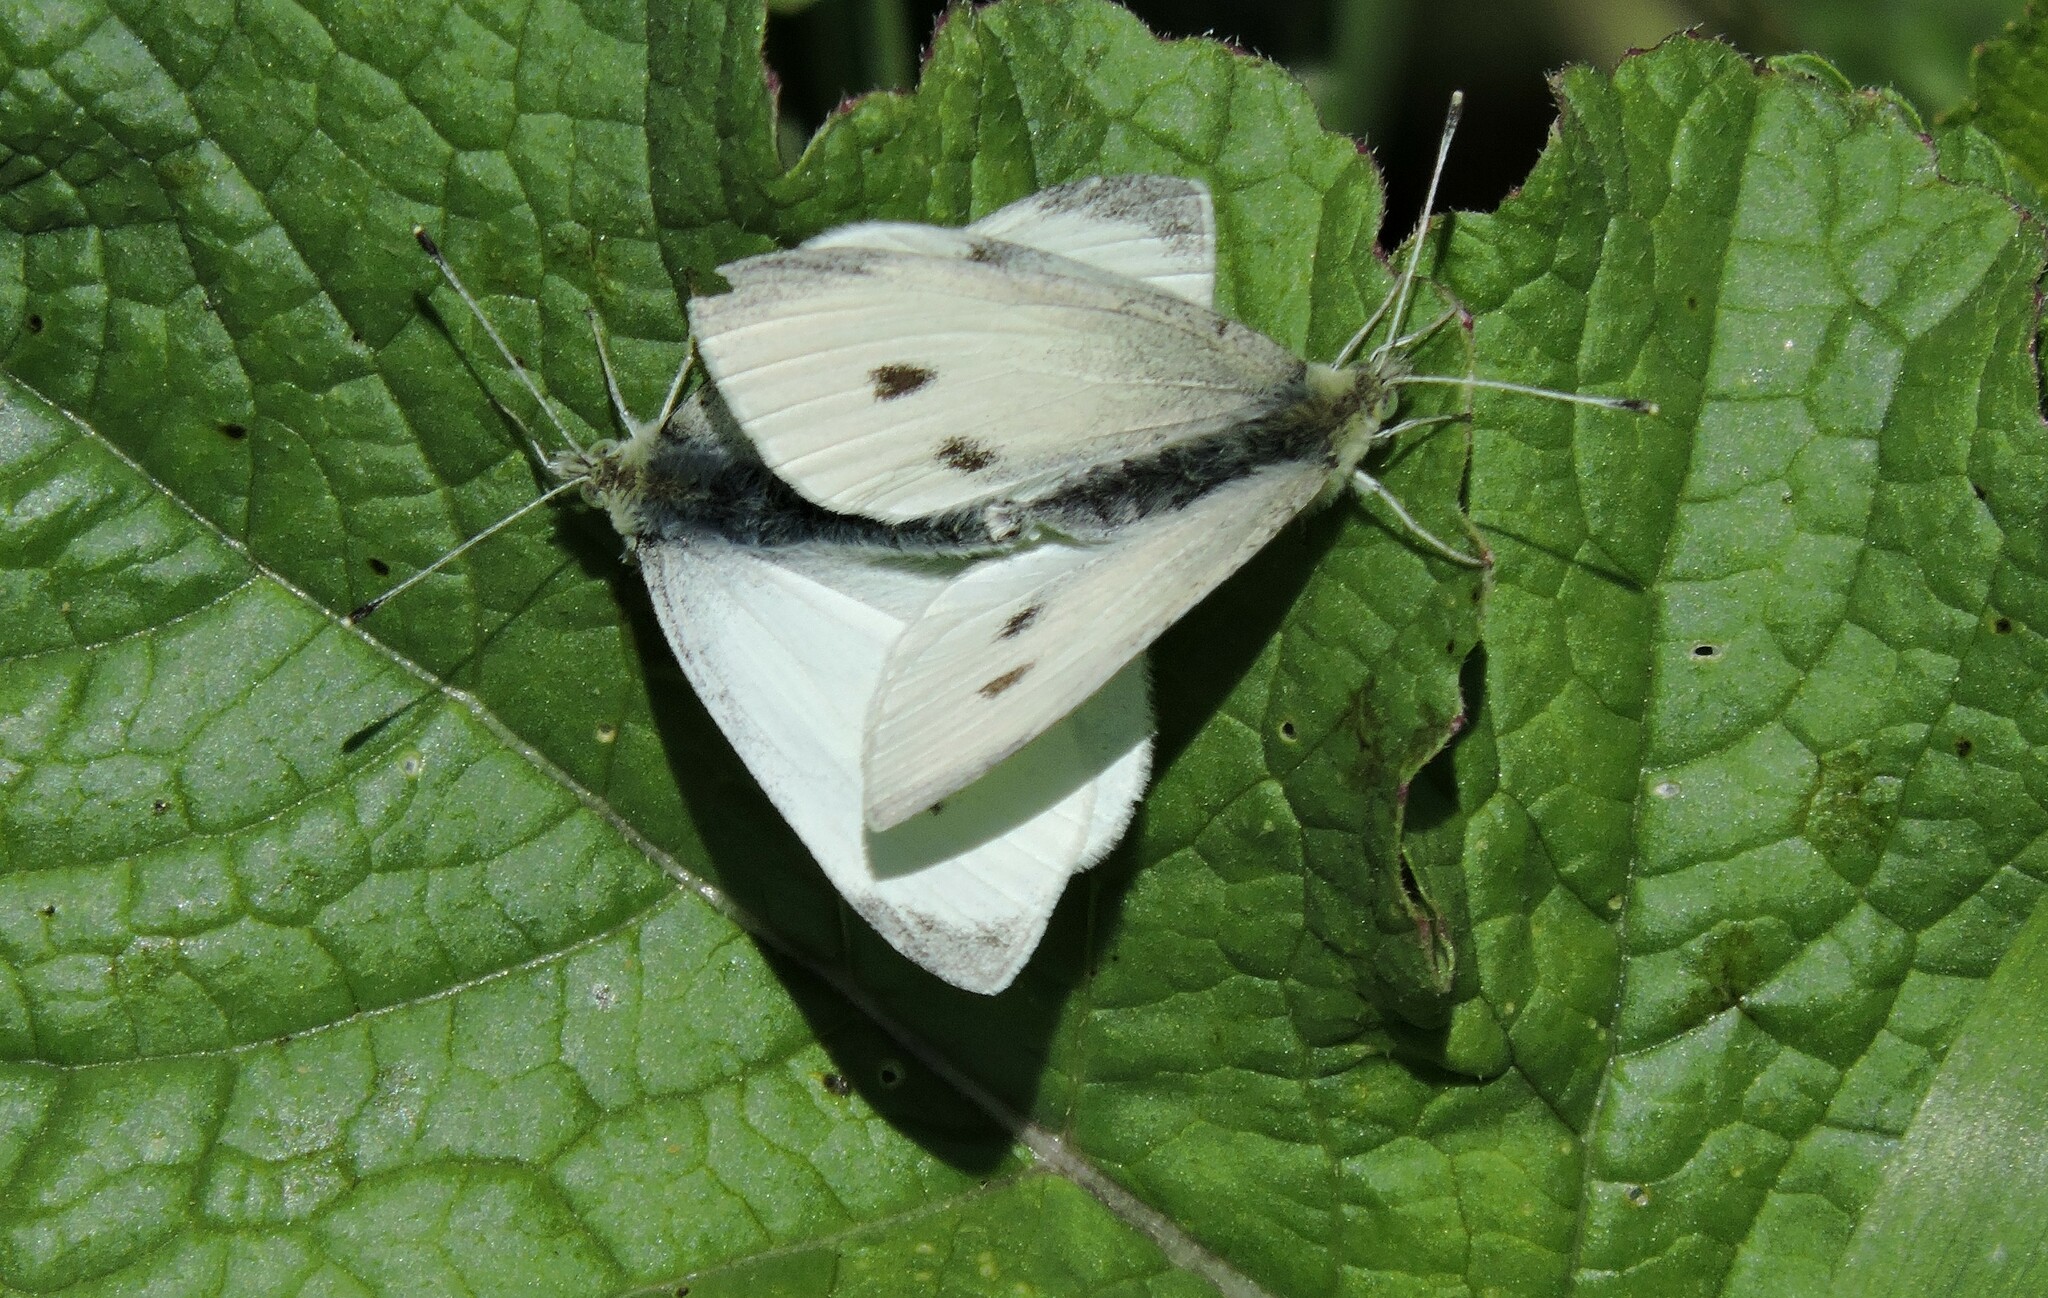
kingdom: Animalia
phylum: Arthropoda
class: Insecta
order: Lepidoptera
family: Pieridae
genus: Pieris
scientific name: Pieris rapae
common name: Small white
